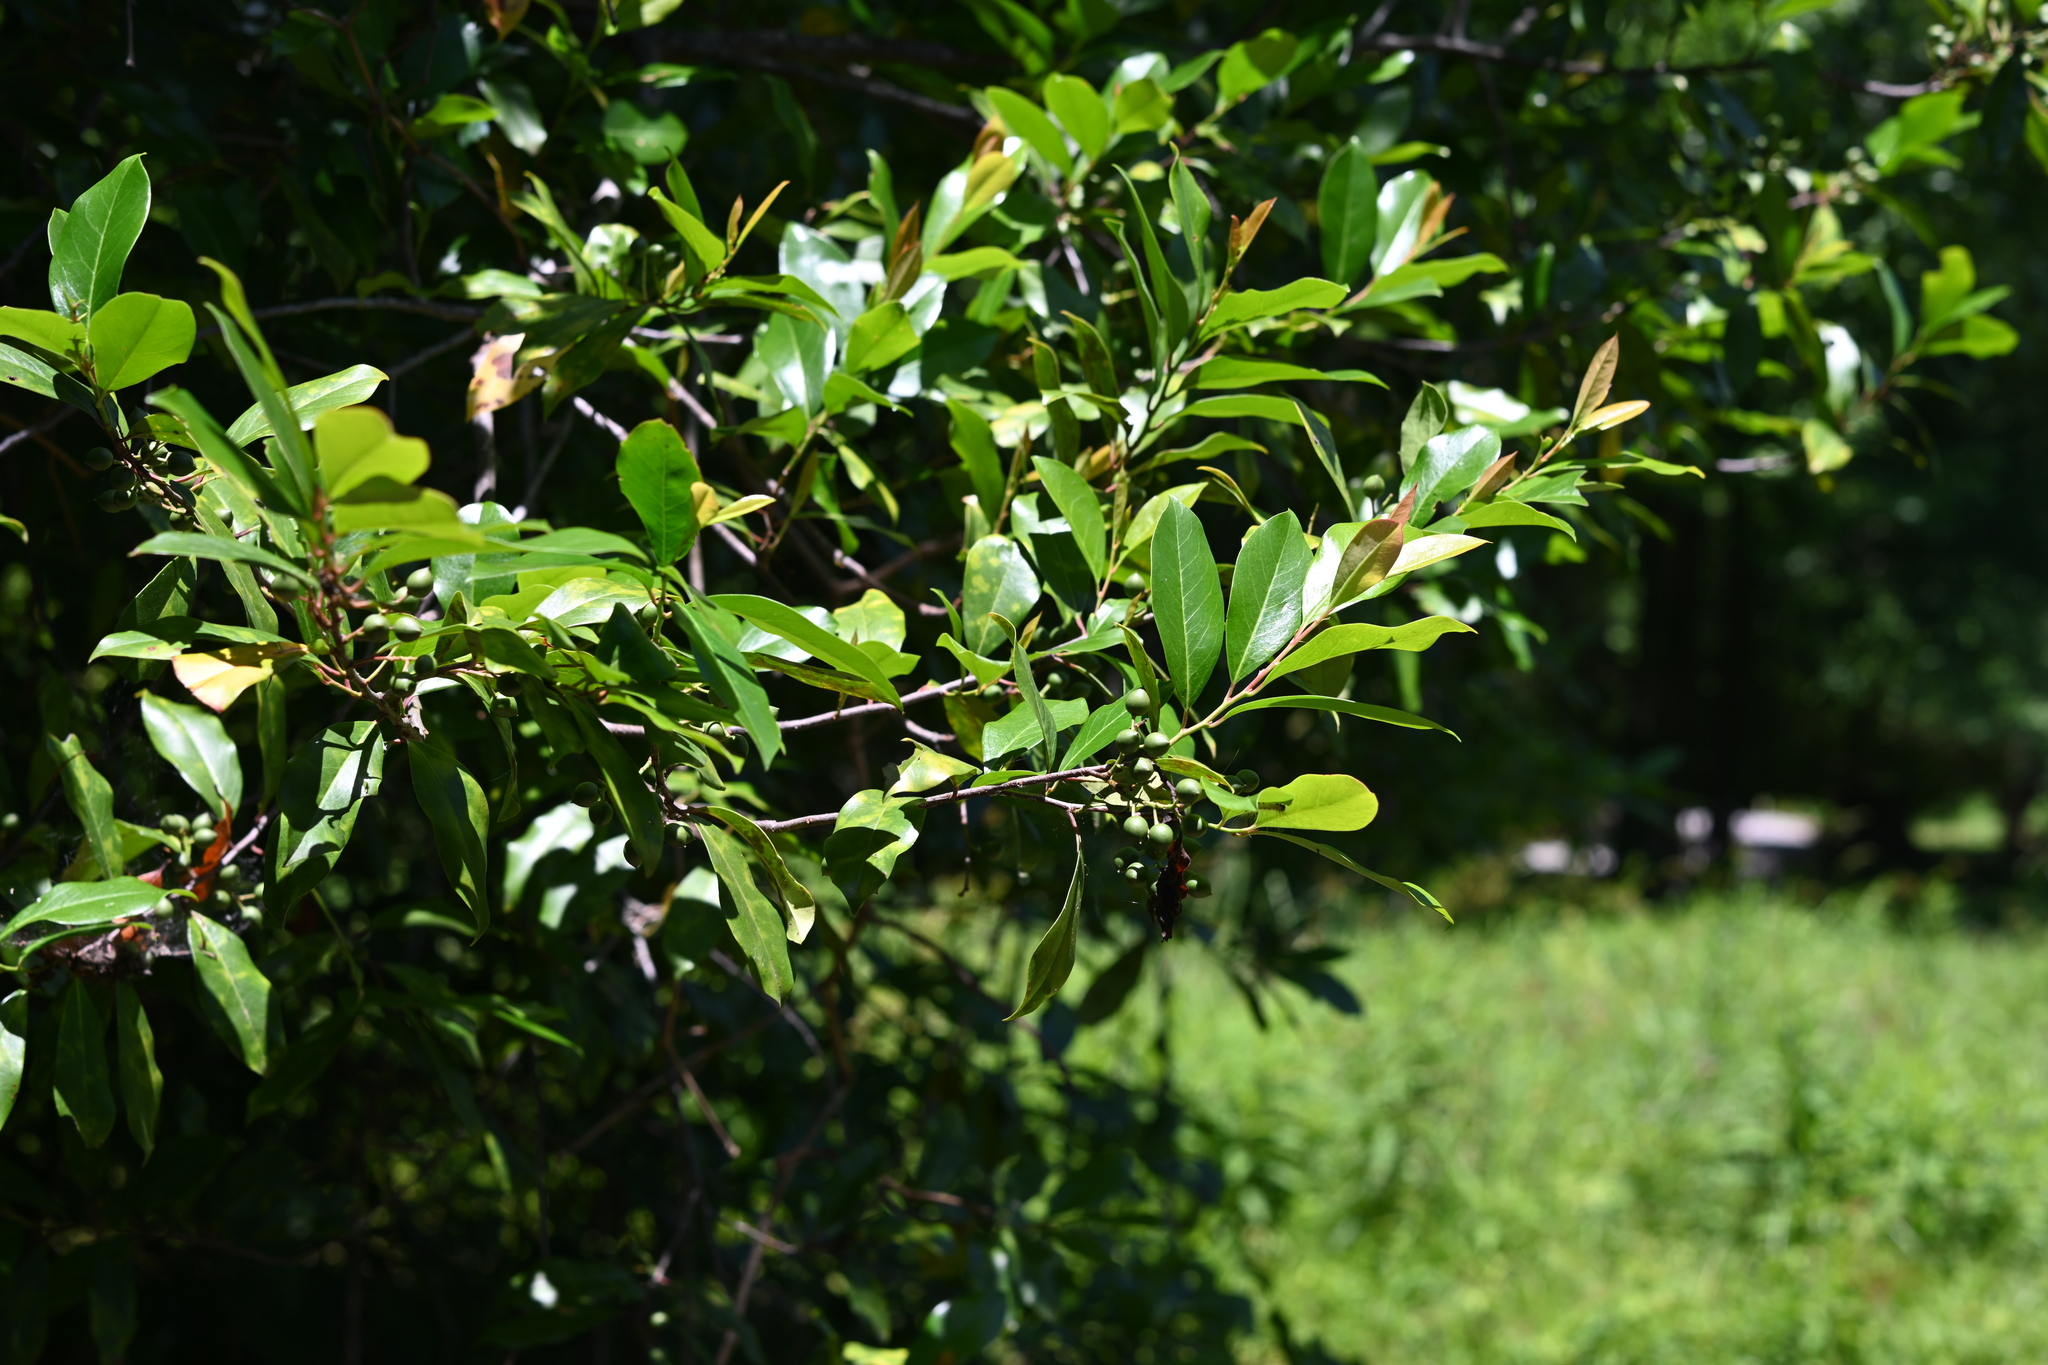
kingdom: Plantae
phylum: Tracheophyta
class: Magnoliopsida
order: Rosales
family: Rosaceae
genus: Prunus
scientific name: Prunus caroliniana
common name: Carolina laurel cherry
